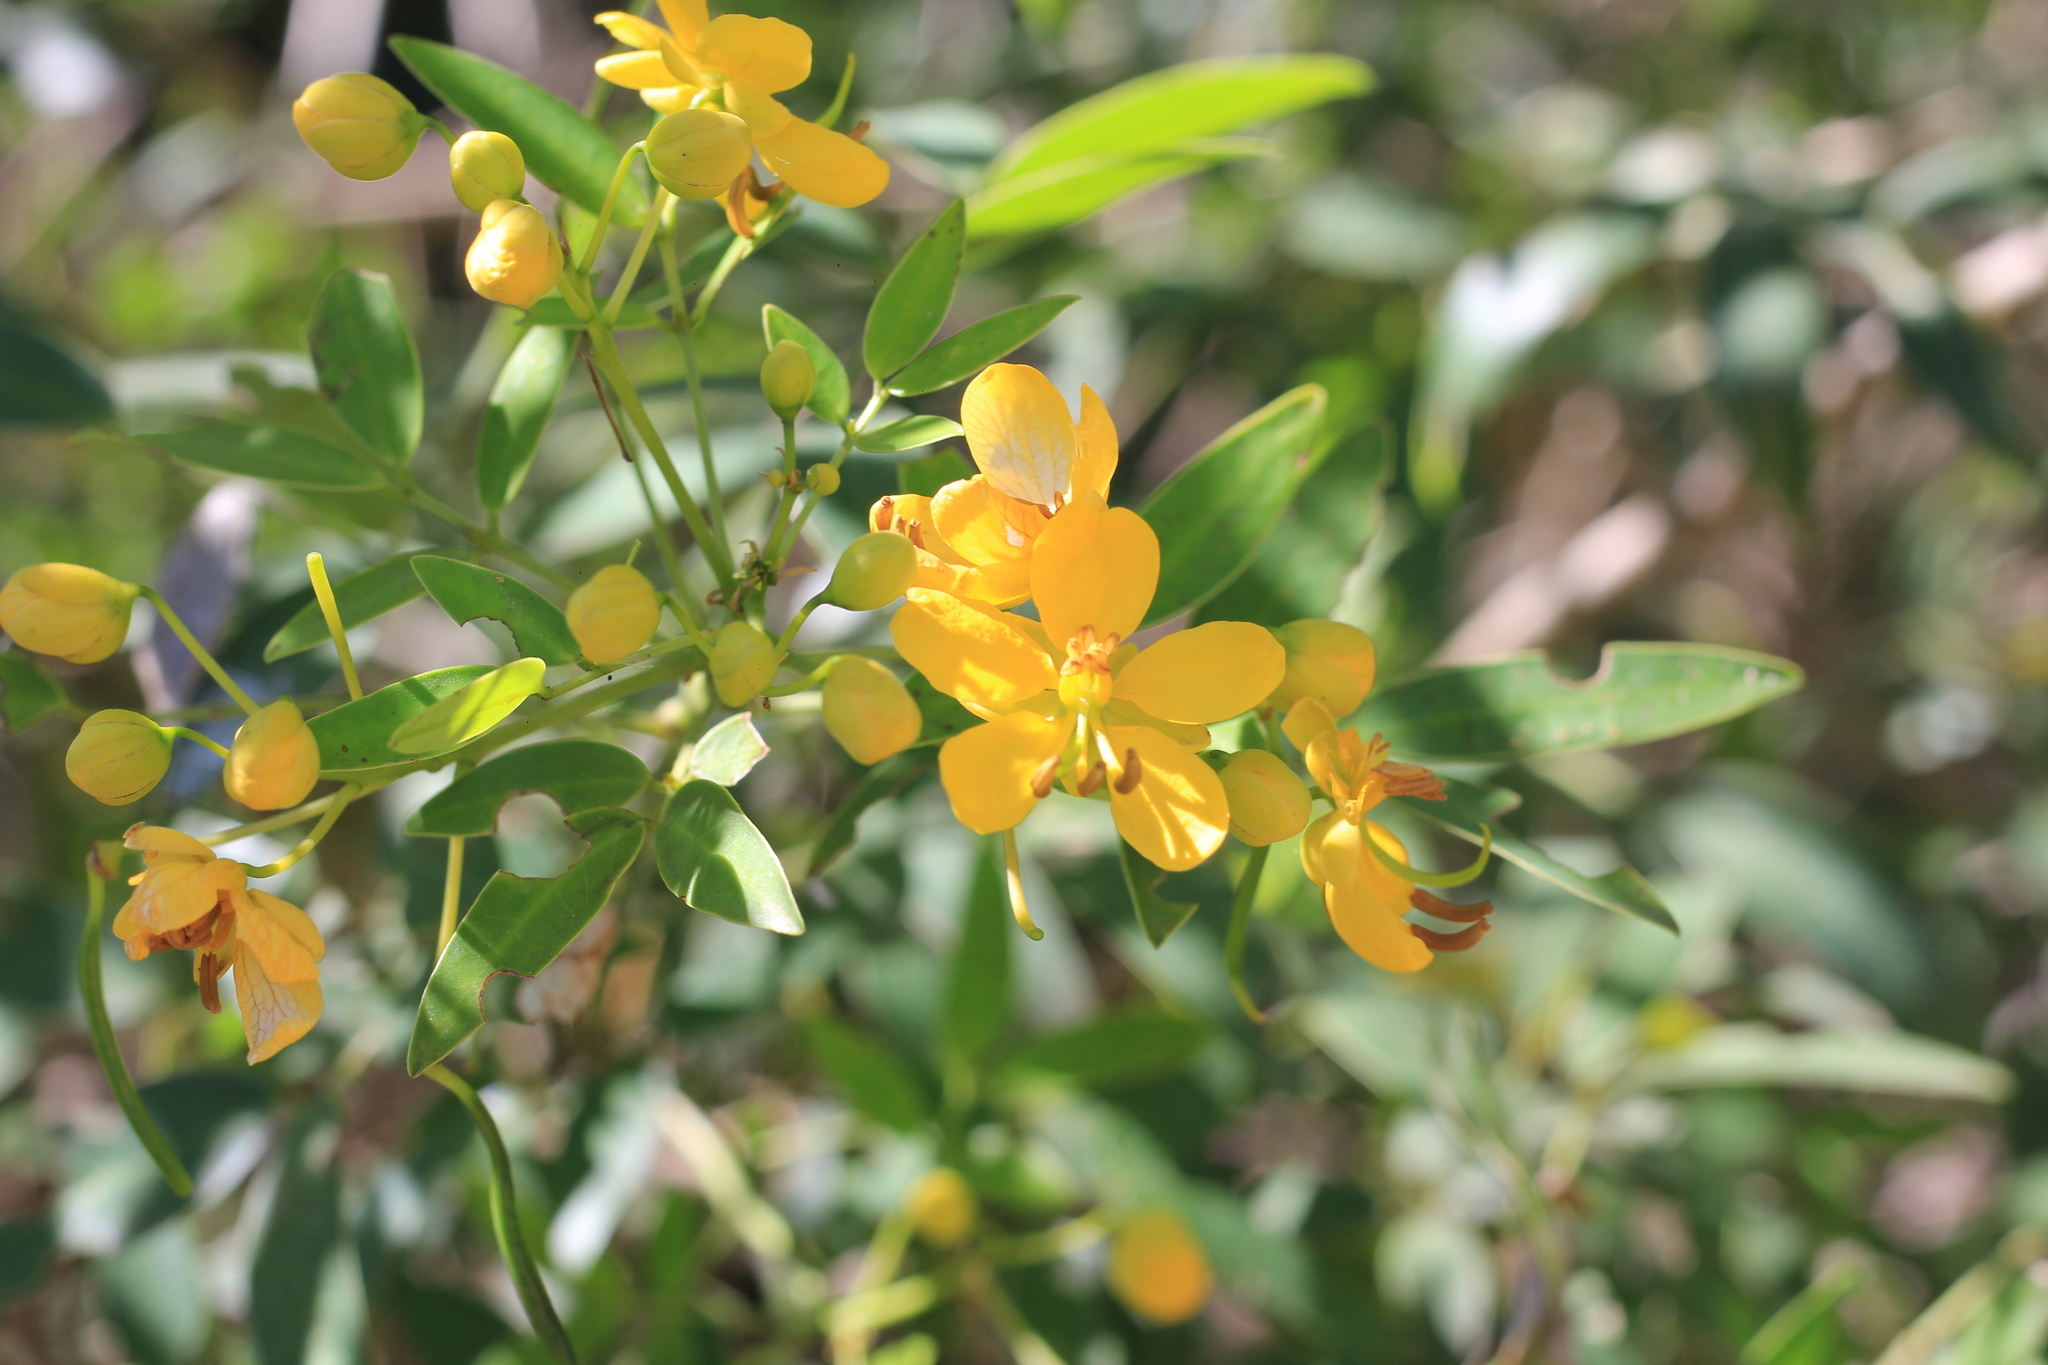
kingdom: Plantae
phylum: Tracheophyta
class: Magnoliopsida
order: Fabales
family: Fabaceae
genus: Senna
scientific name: Senna corymbosa
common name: Argentine senna
